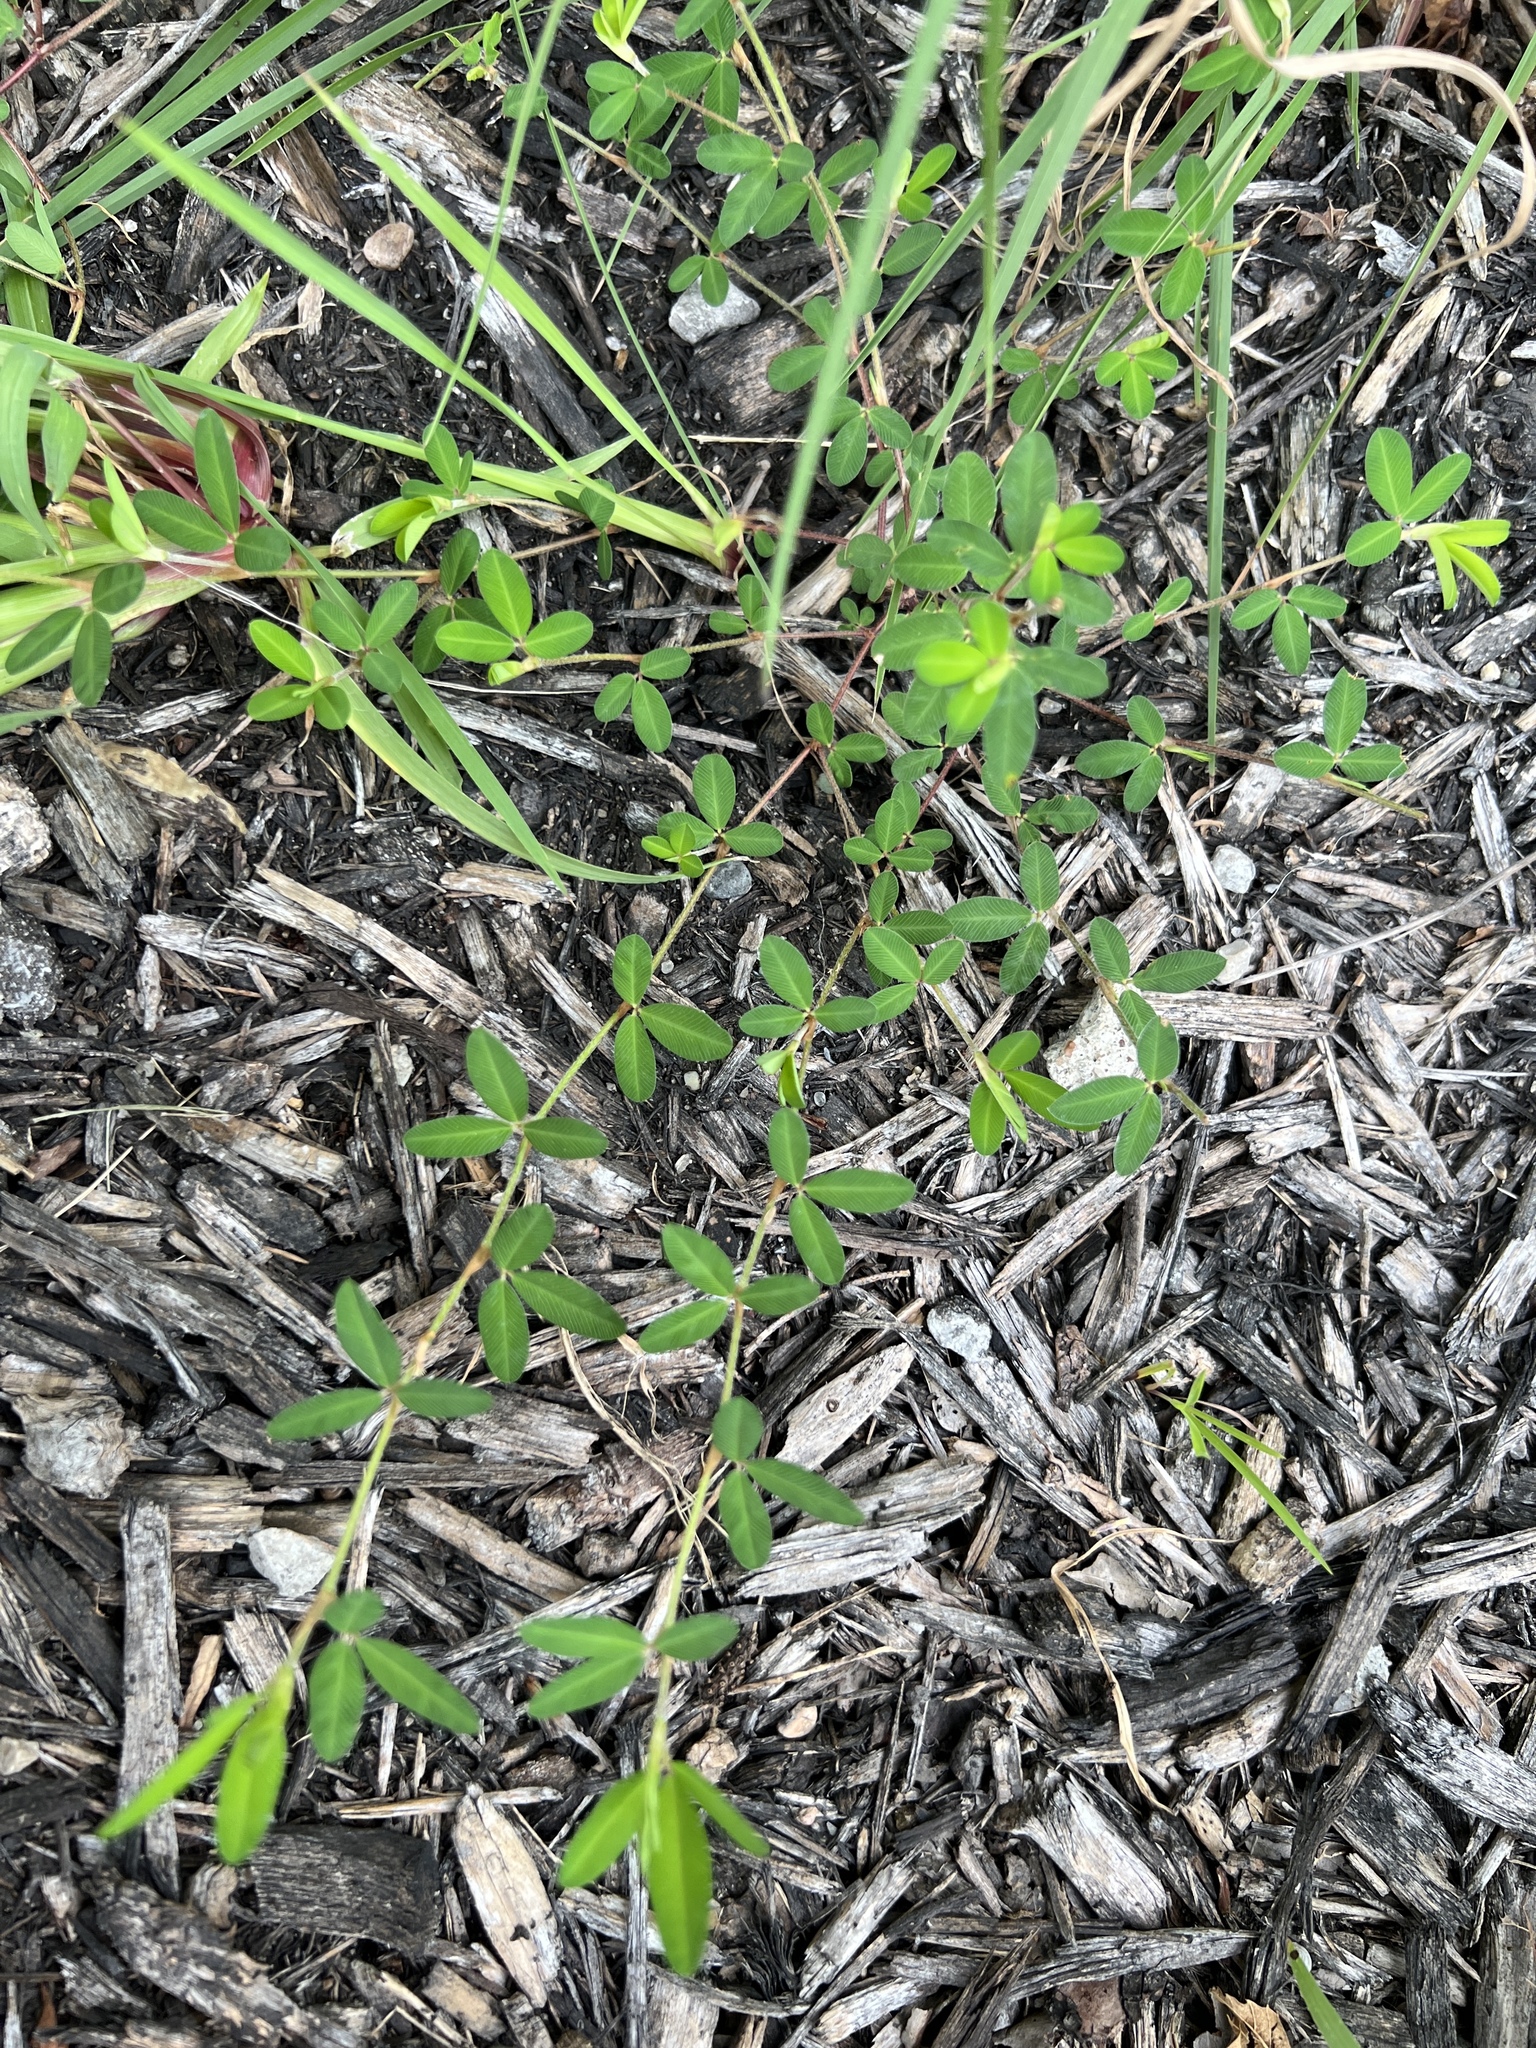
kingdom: Plantae
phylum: Tracheophyta
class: Magnoliopsida
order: Fabales
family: Fabaceae
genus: Kummerowia
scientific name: Kummerowia striata
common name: Japanese clover
